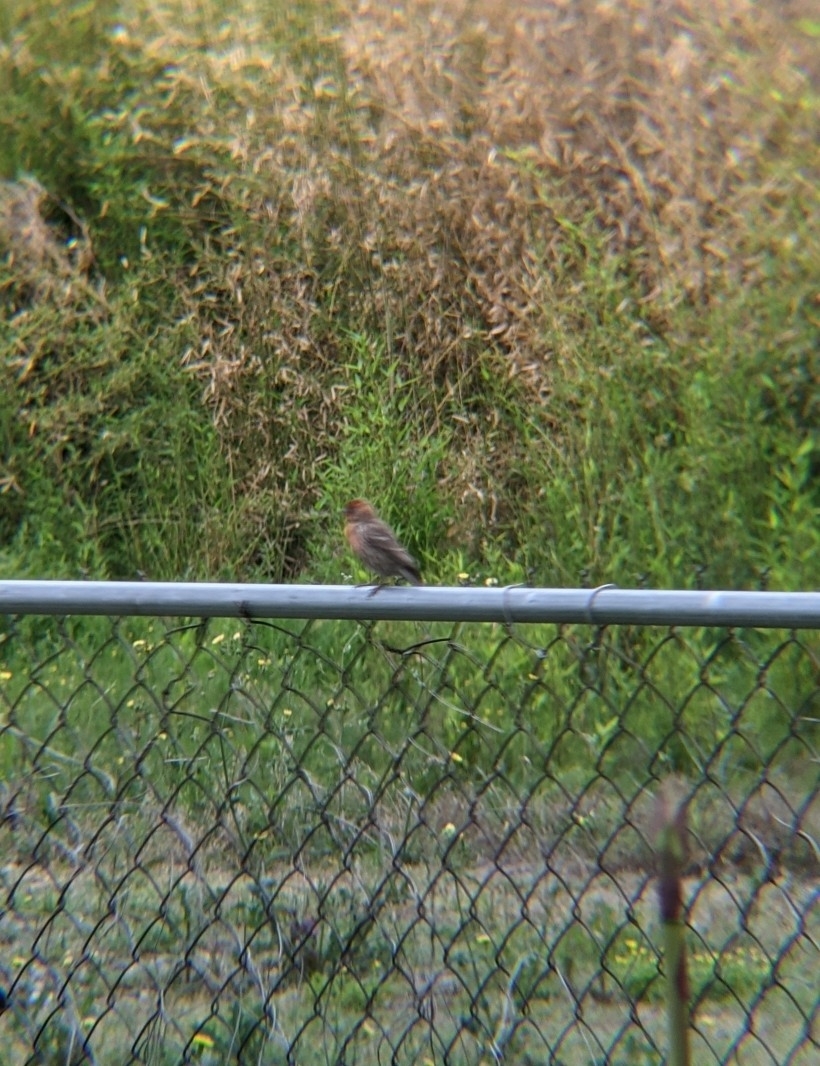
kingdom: Animalia
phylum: Chordata
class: Aves
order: Passeriformes
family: Fringillidae
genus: Haemorhous
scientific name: Haemorhous mexicanus
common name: House finch
